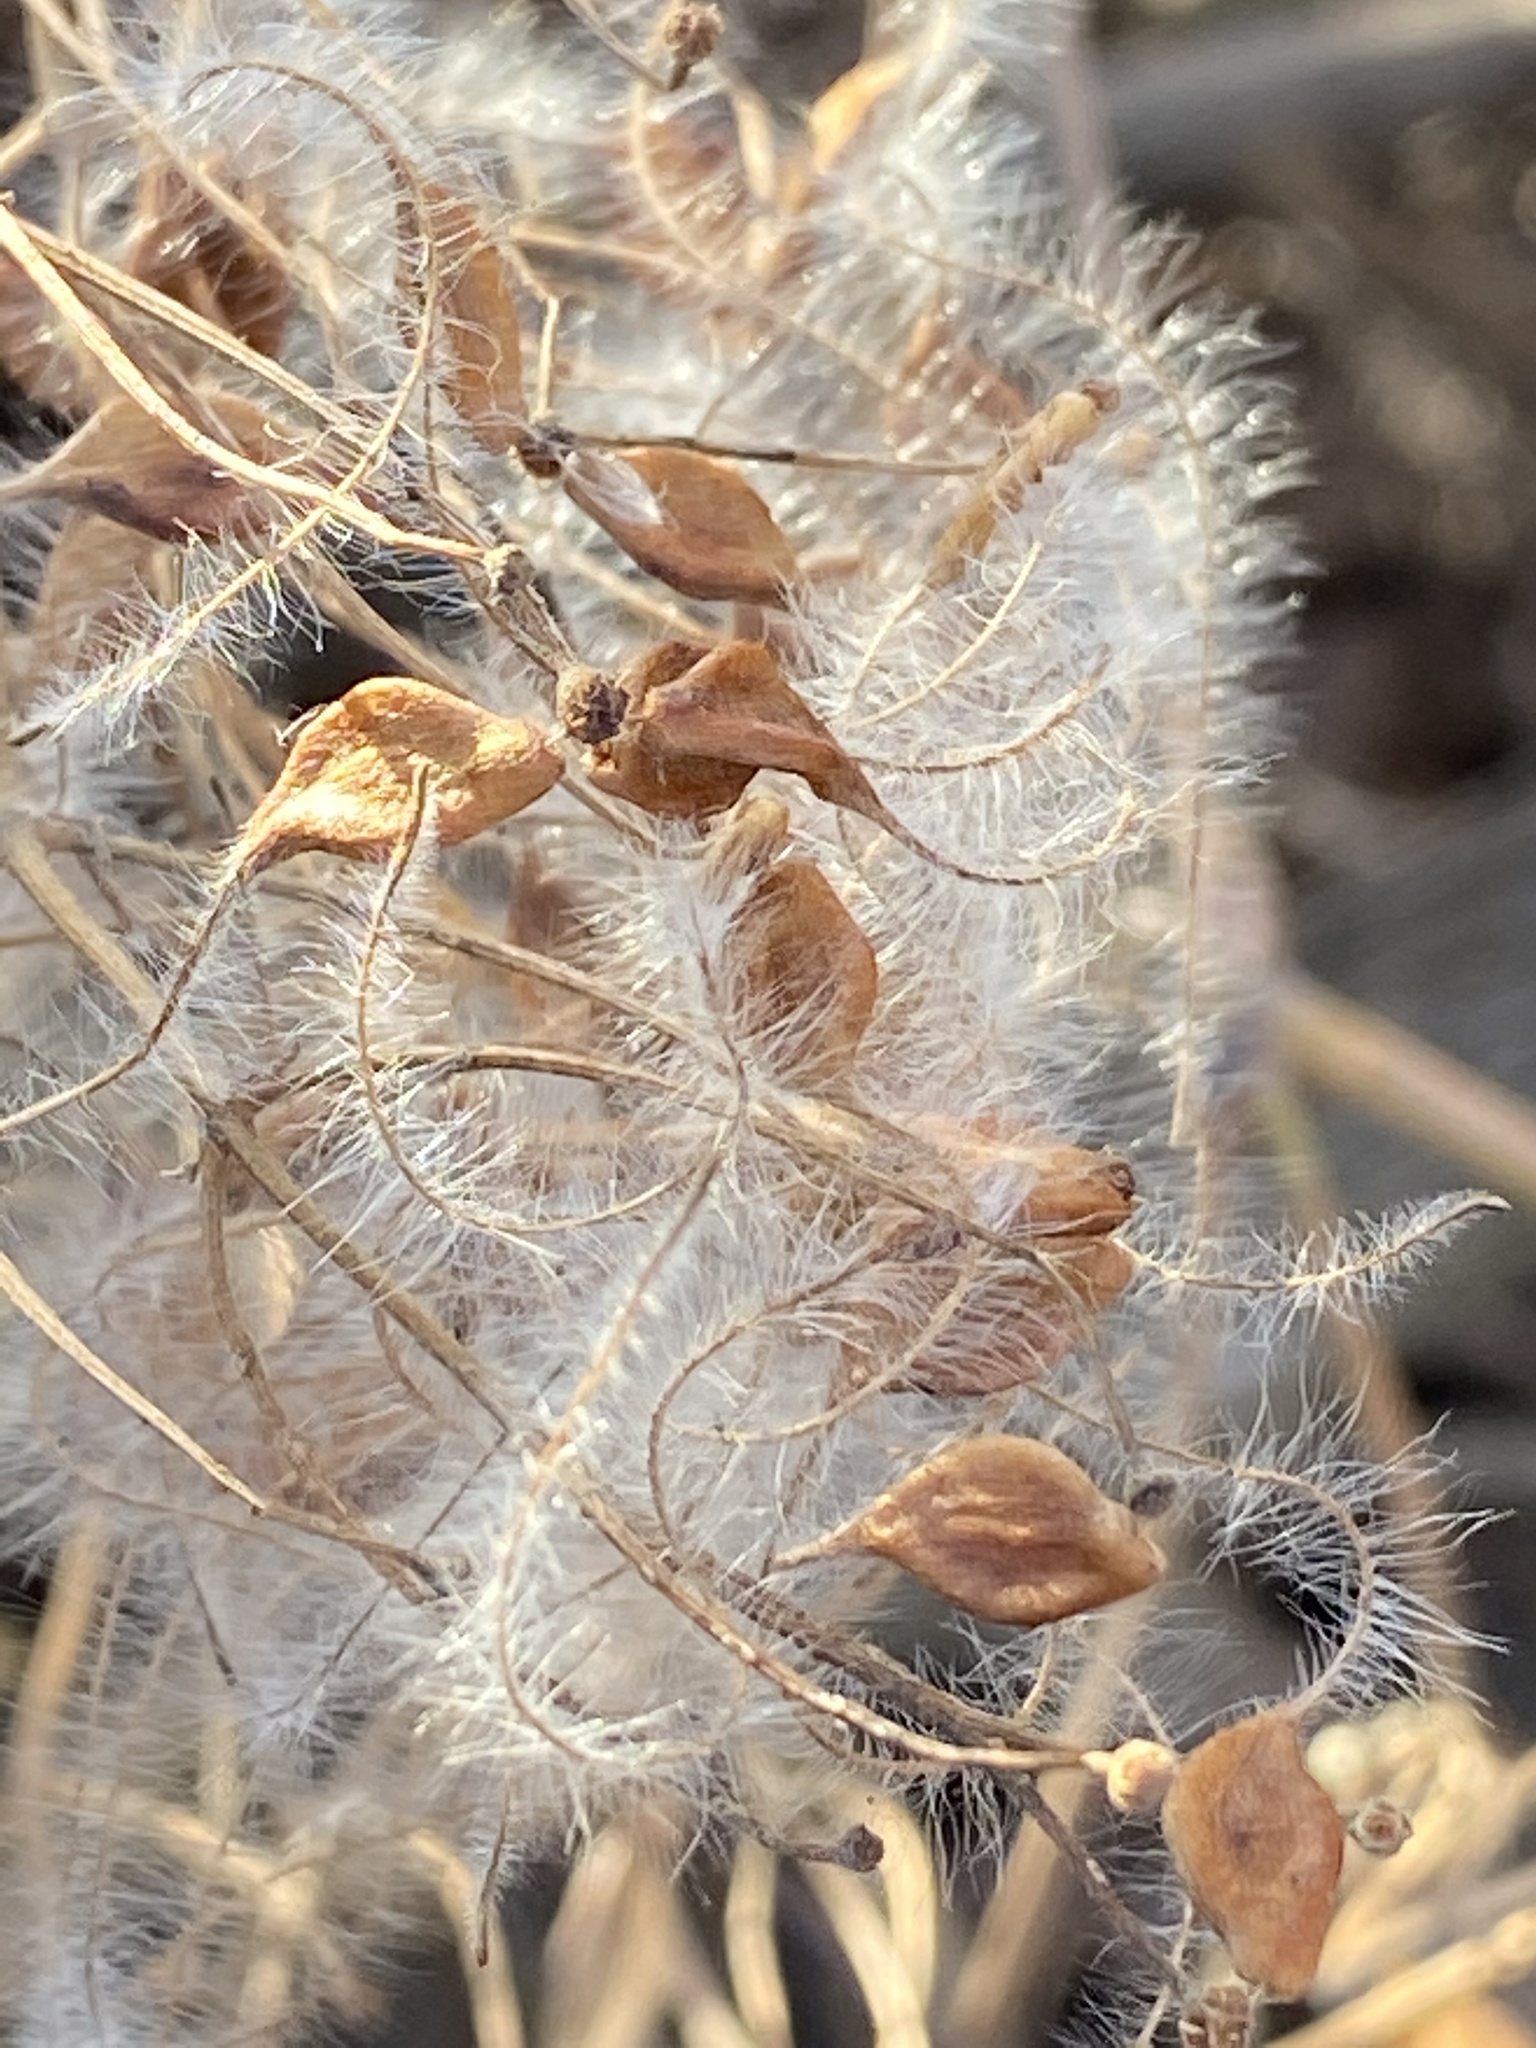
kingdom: Plantae
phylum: Tracheophyta
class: Magnoliopsida
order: Ranunculales
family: Ranunculaceae
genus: Clematis
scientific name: Clematis terniflora
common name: Sweet autumn clematis
